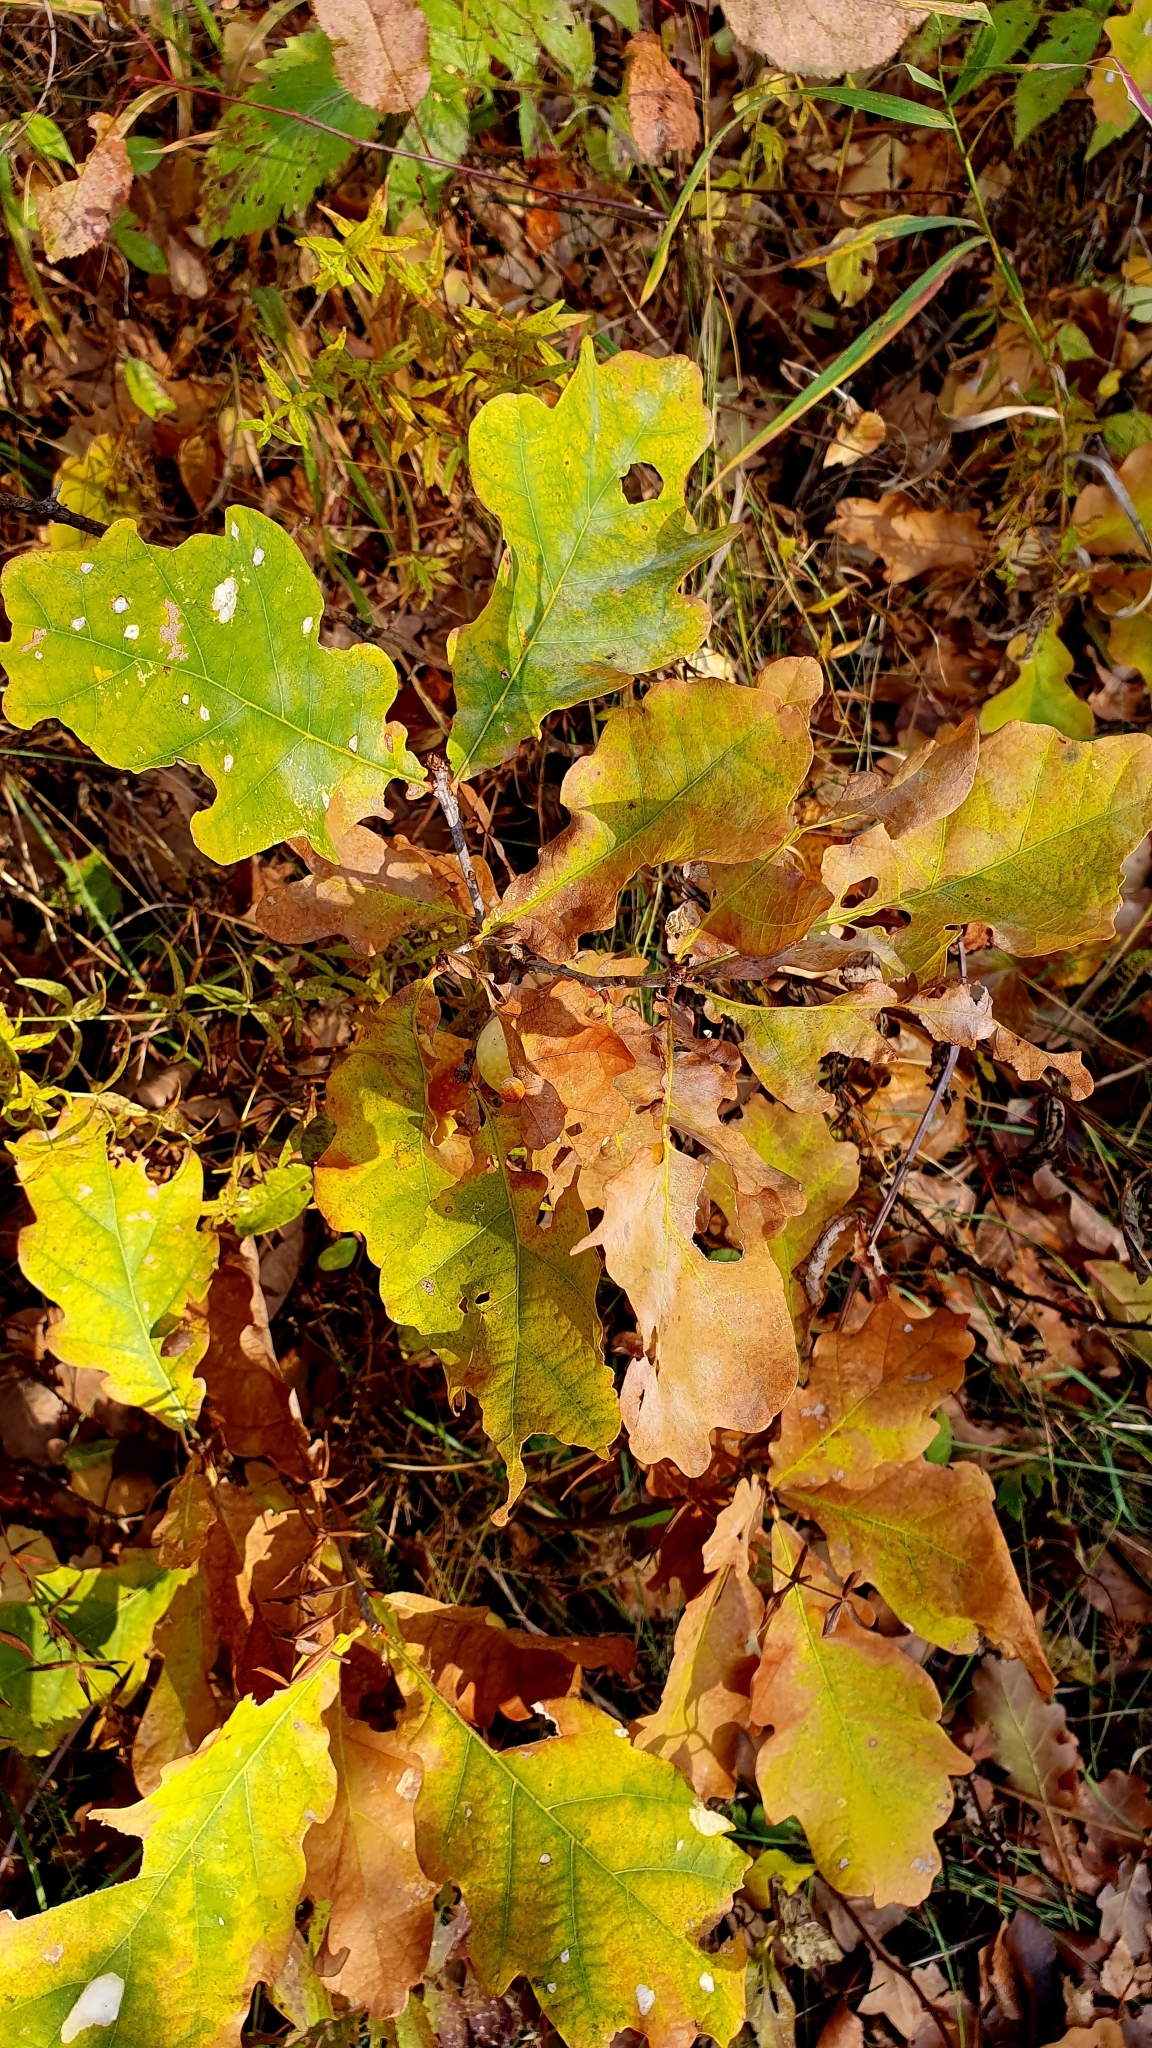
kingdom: Plantae
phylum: Tracheophyta
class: Magnoliopsida
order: Fagales
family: Fagaceae
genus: Quercus
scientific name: Quercus robur
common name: Pedunculate oak
